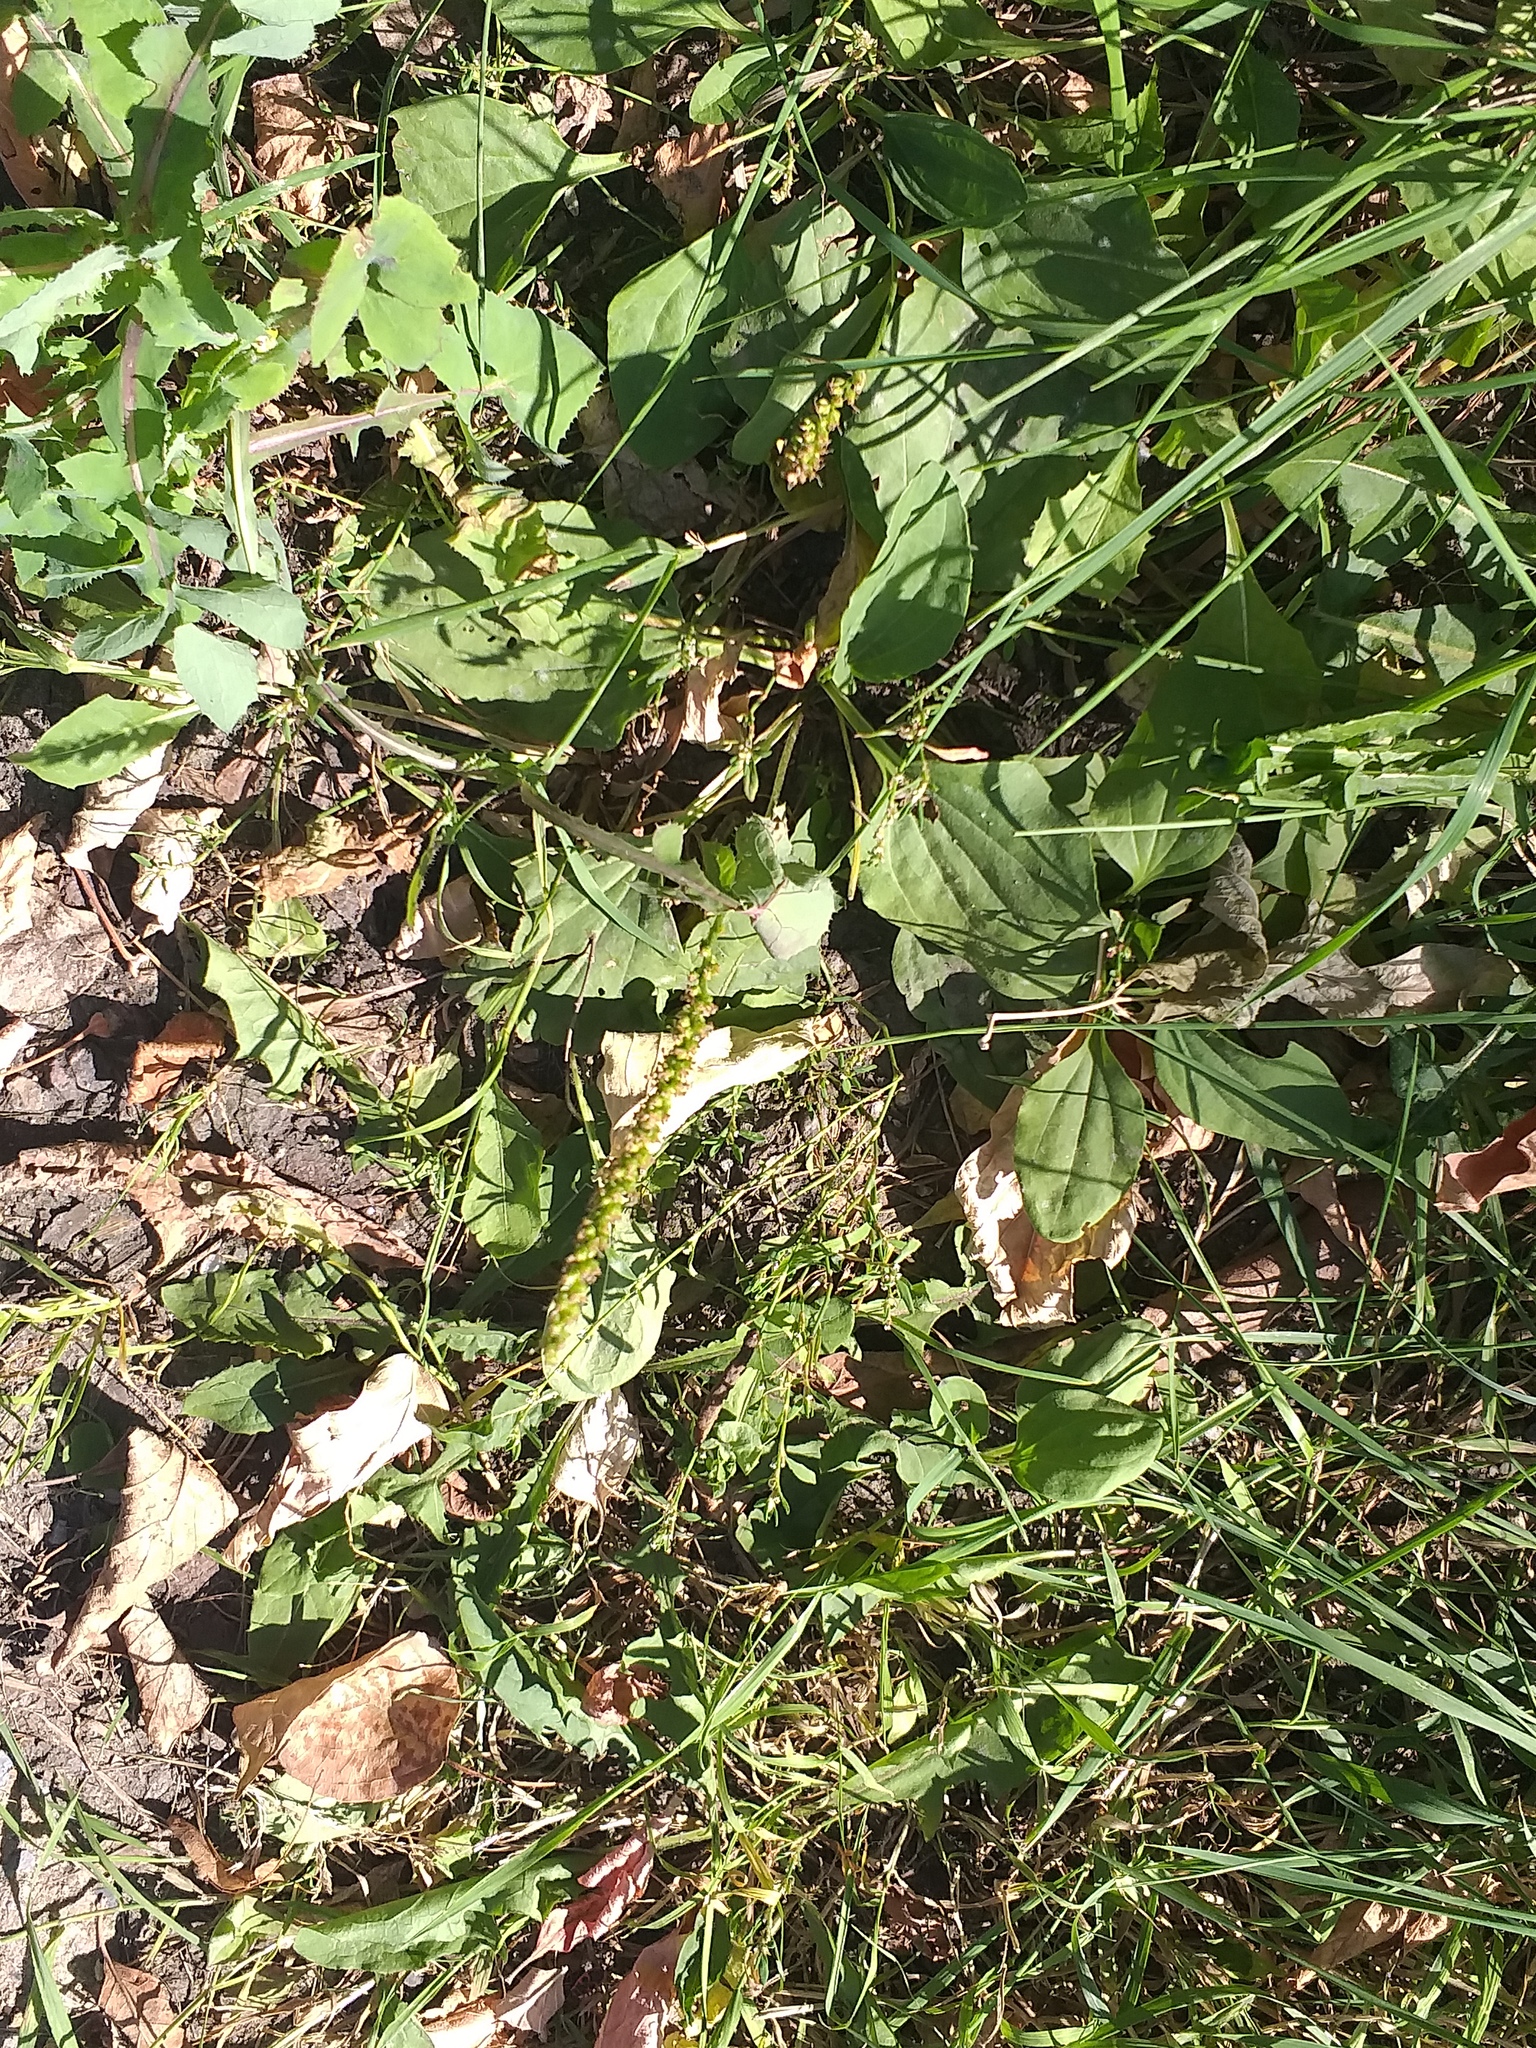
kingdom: Plantae
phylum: Tracheophyta
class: Magnoliopsida
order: Lamiales
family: Plantaginaceae
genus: Plantago
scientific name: Plantago major
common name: Common plantain
